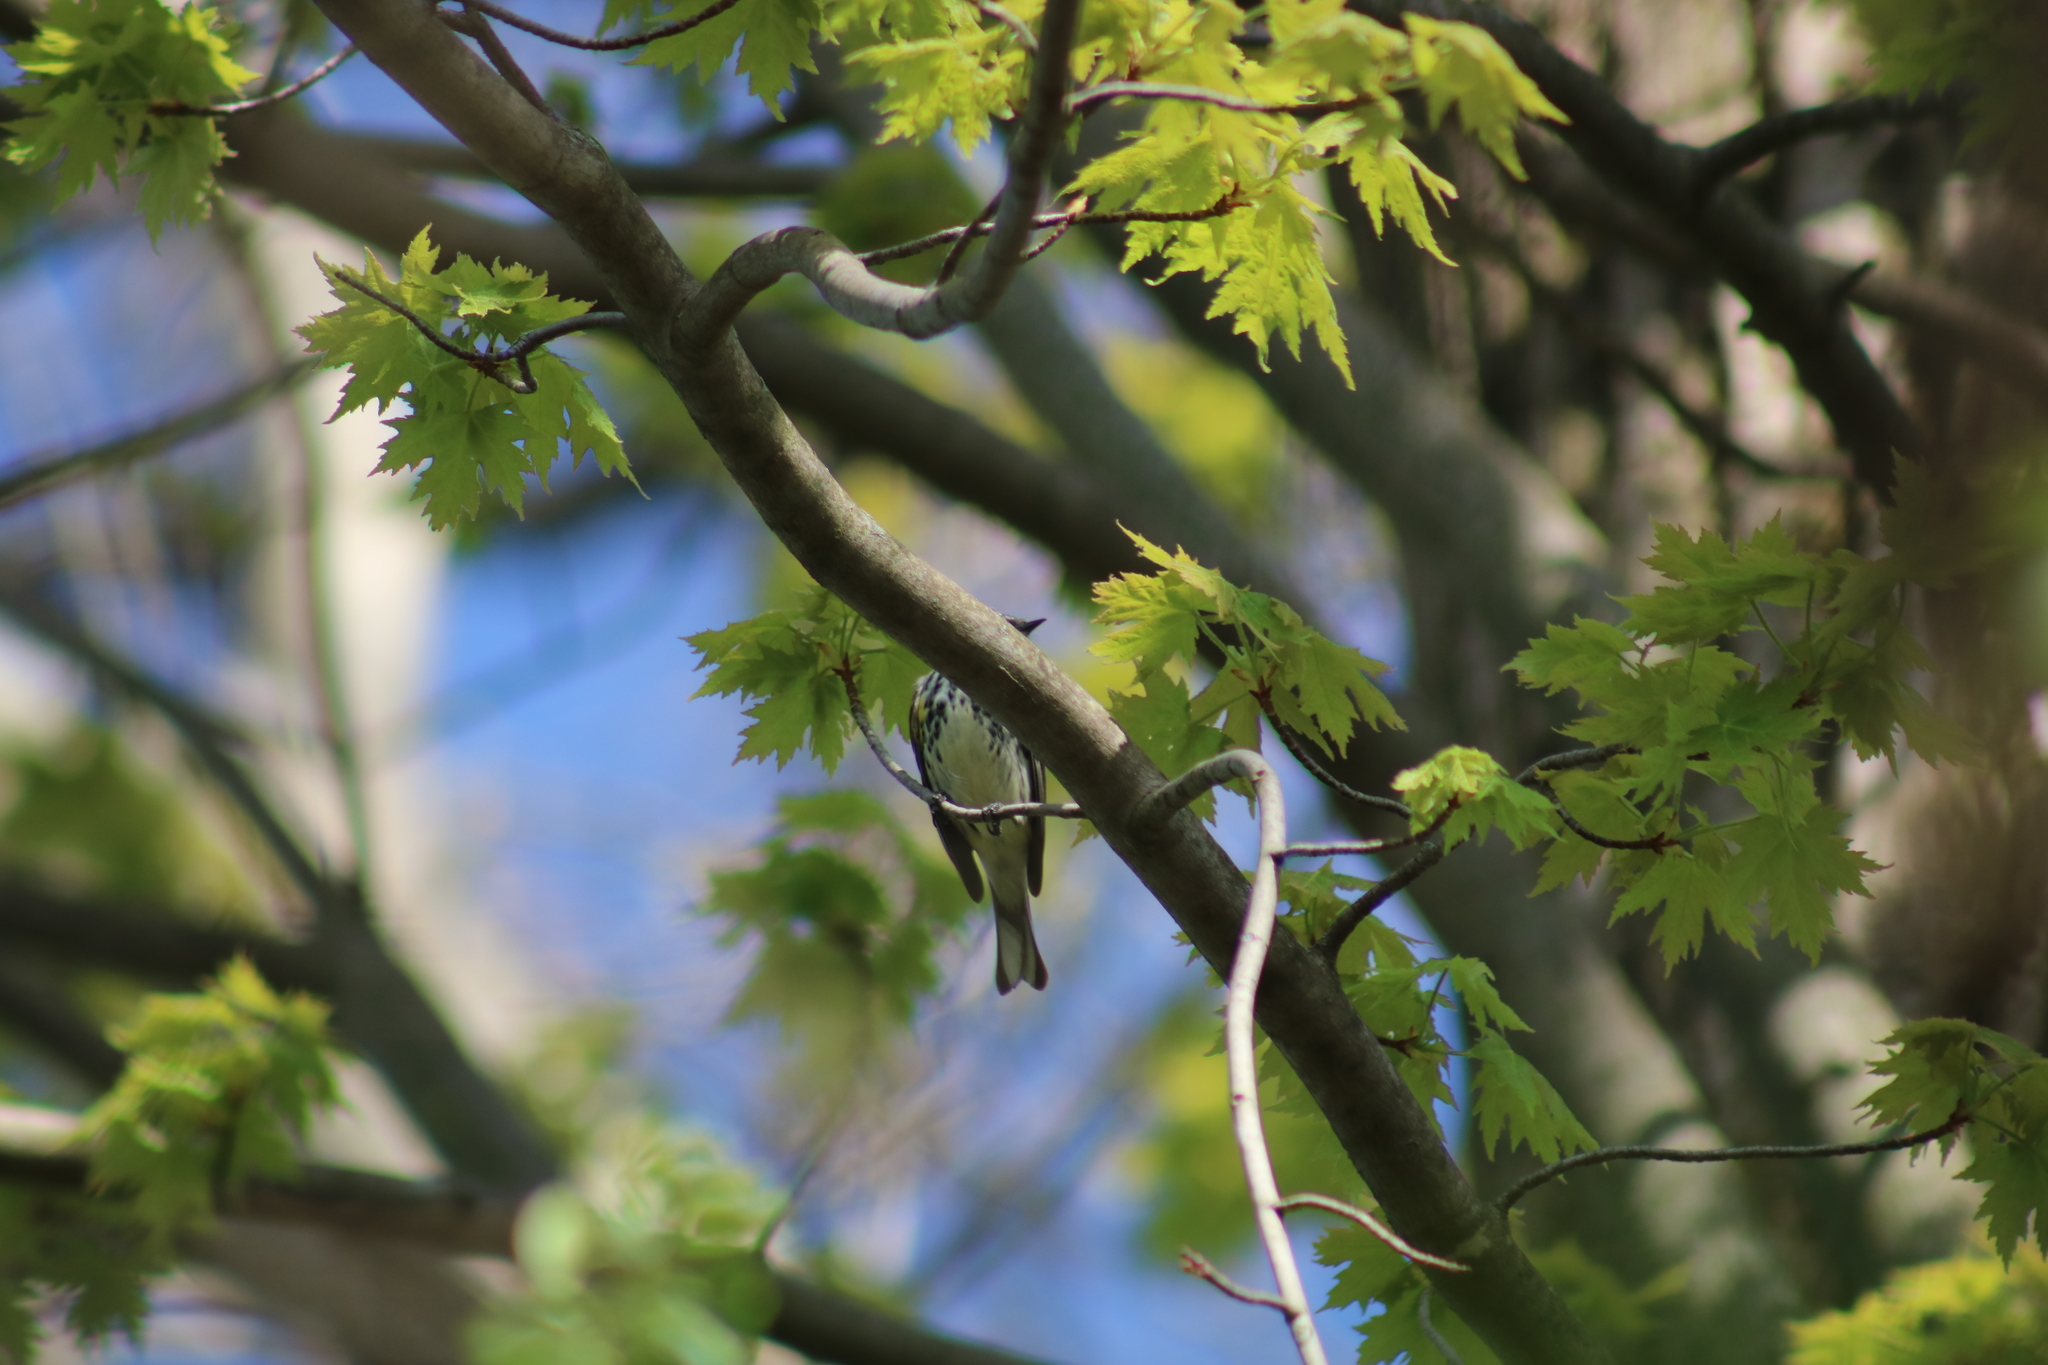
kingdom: Animalia
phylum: Chordata
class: Aves
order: Passeriformes
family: Parulidae
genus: Setophaga
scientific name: Setophaga coronata
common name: Myrtle warbler
